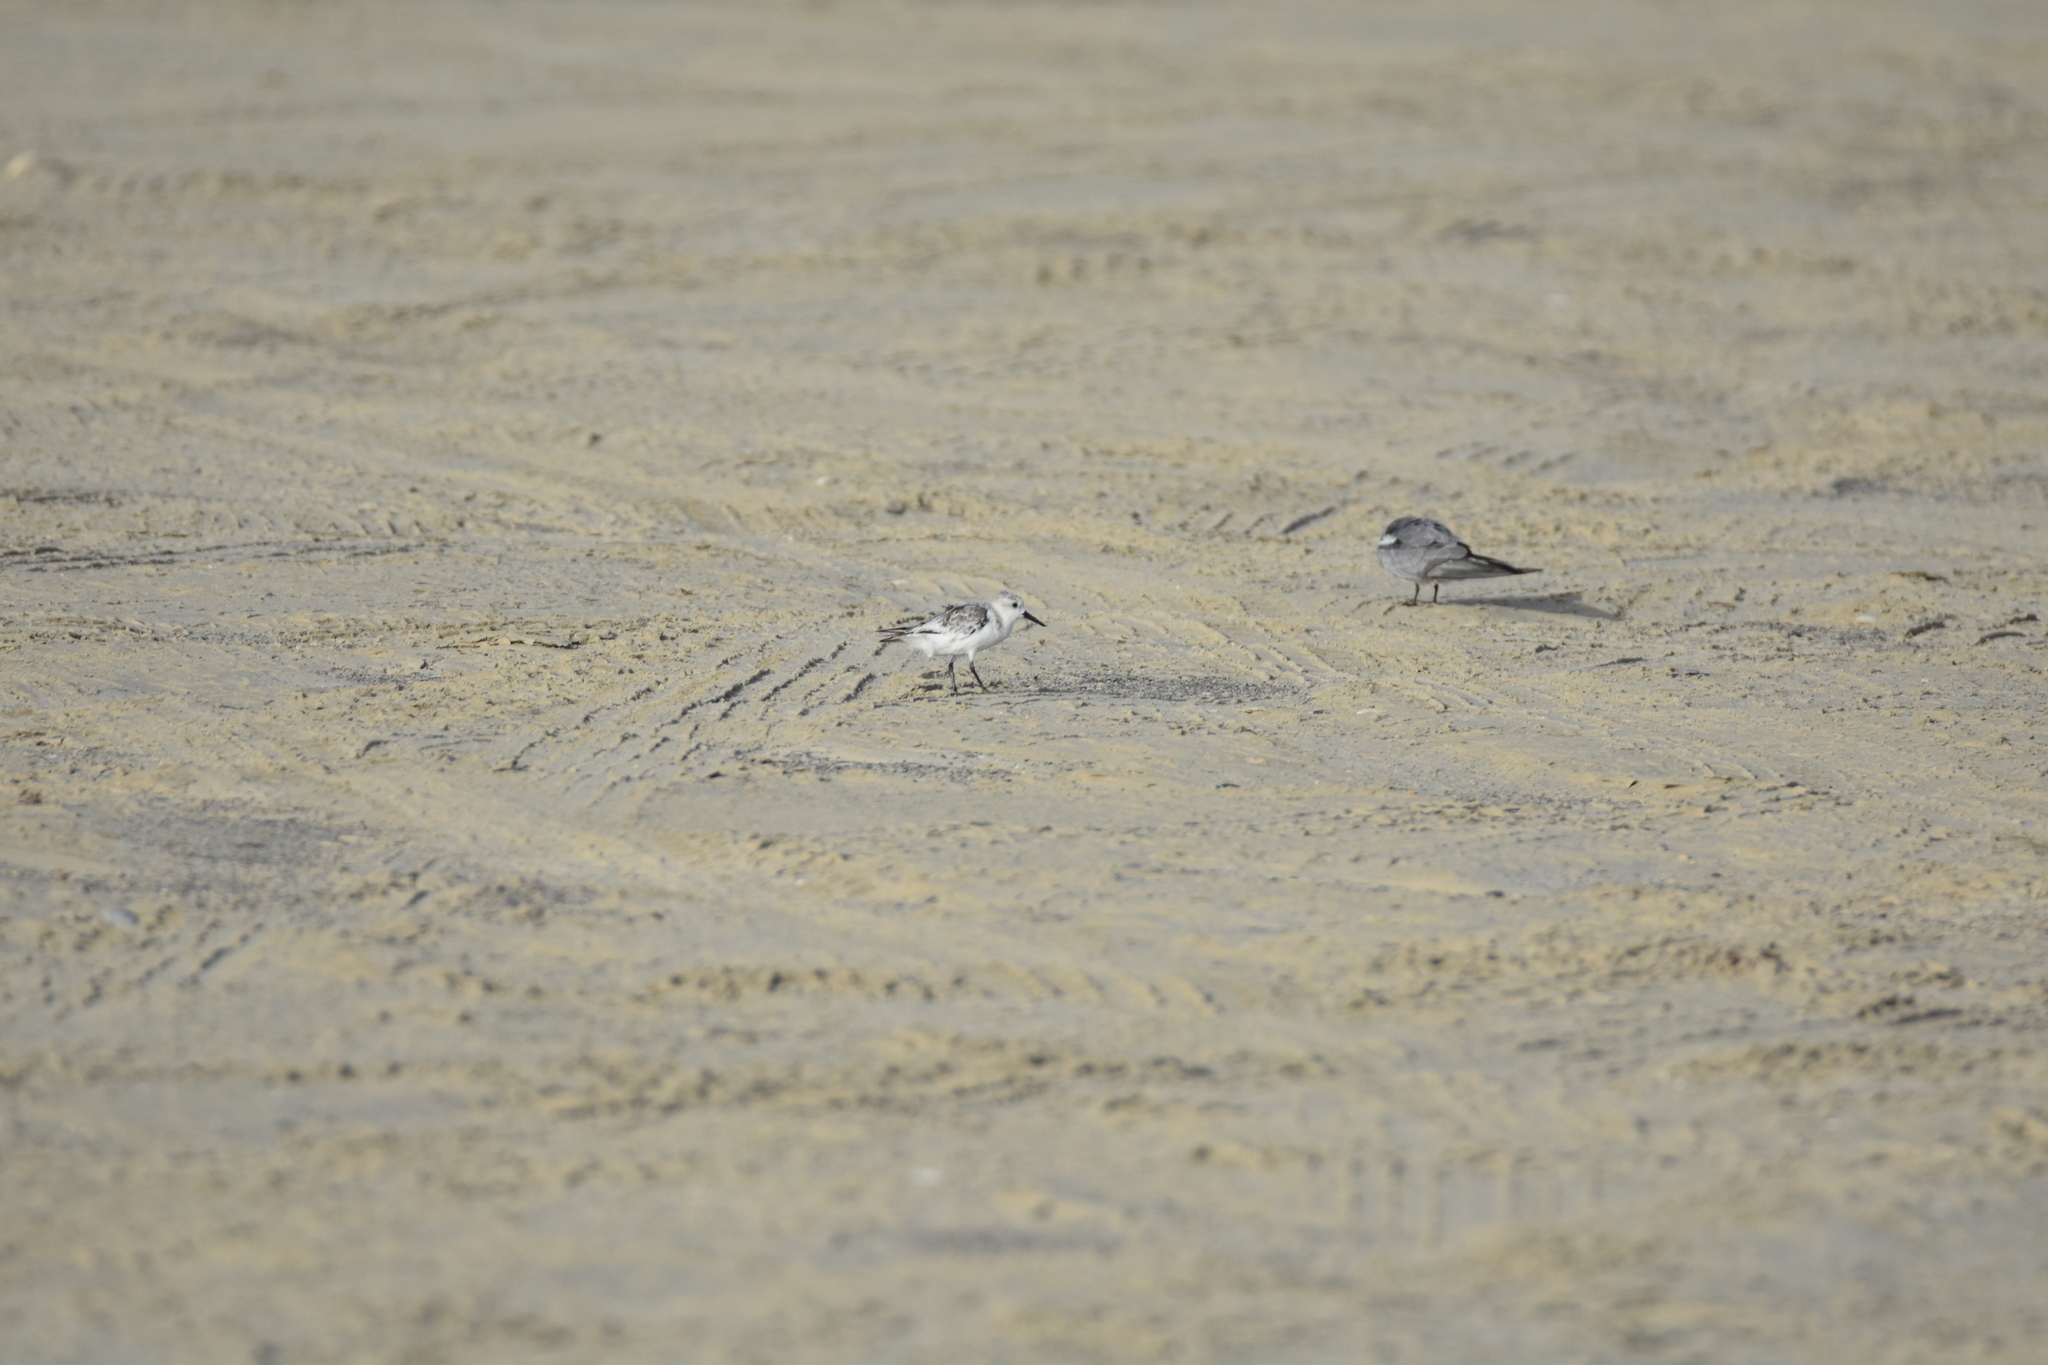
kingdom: Animalia
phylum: Chordata
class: Aves
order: Charadriiformes
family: Scolopacidae
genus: Calidris
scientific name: Calidris alba
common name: Sanderling
